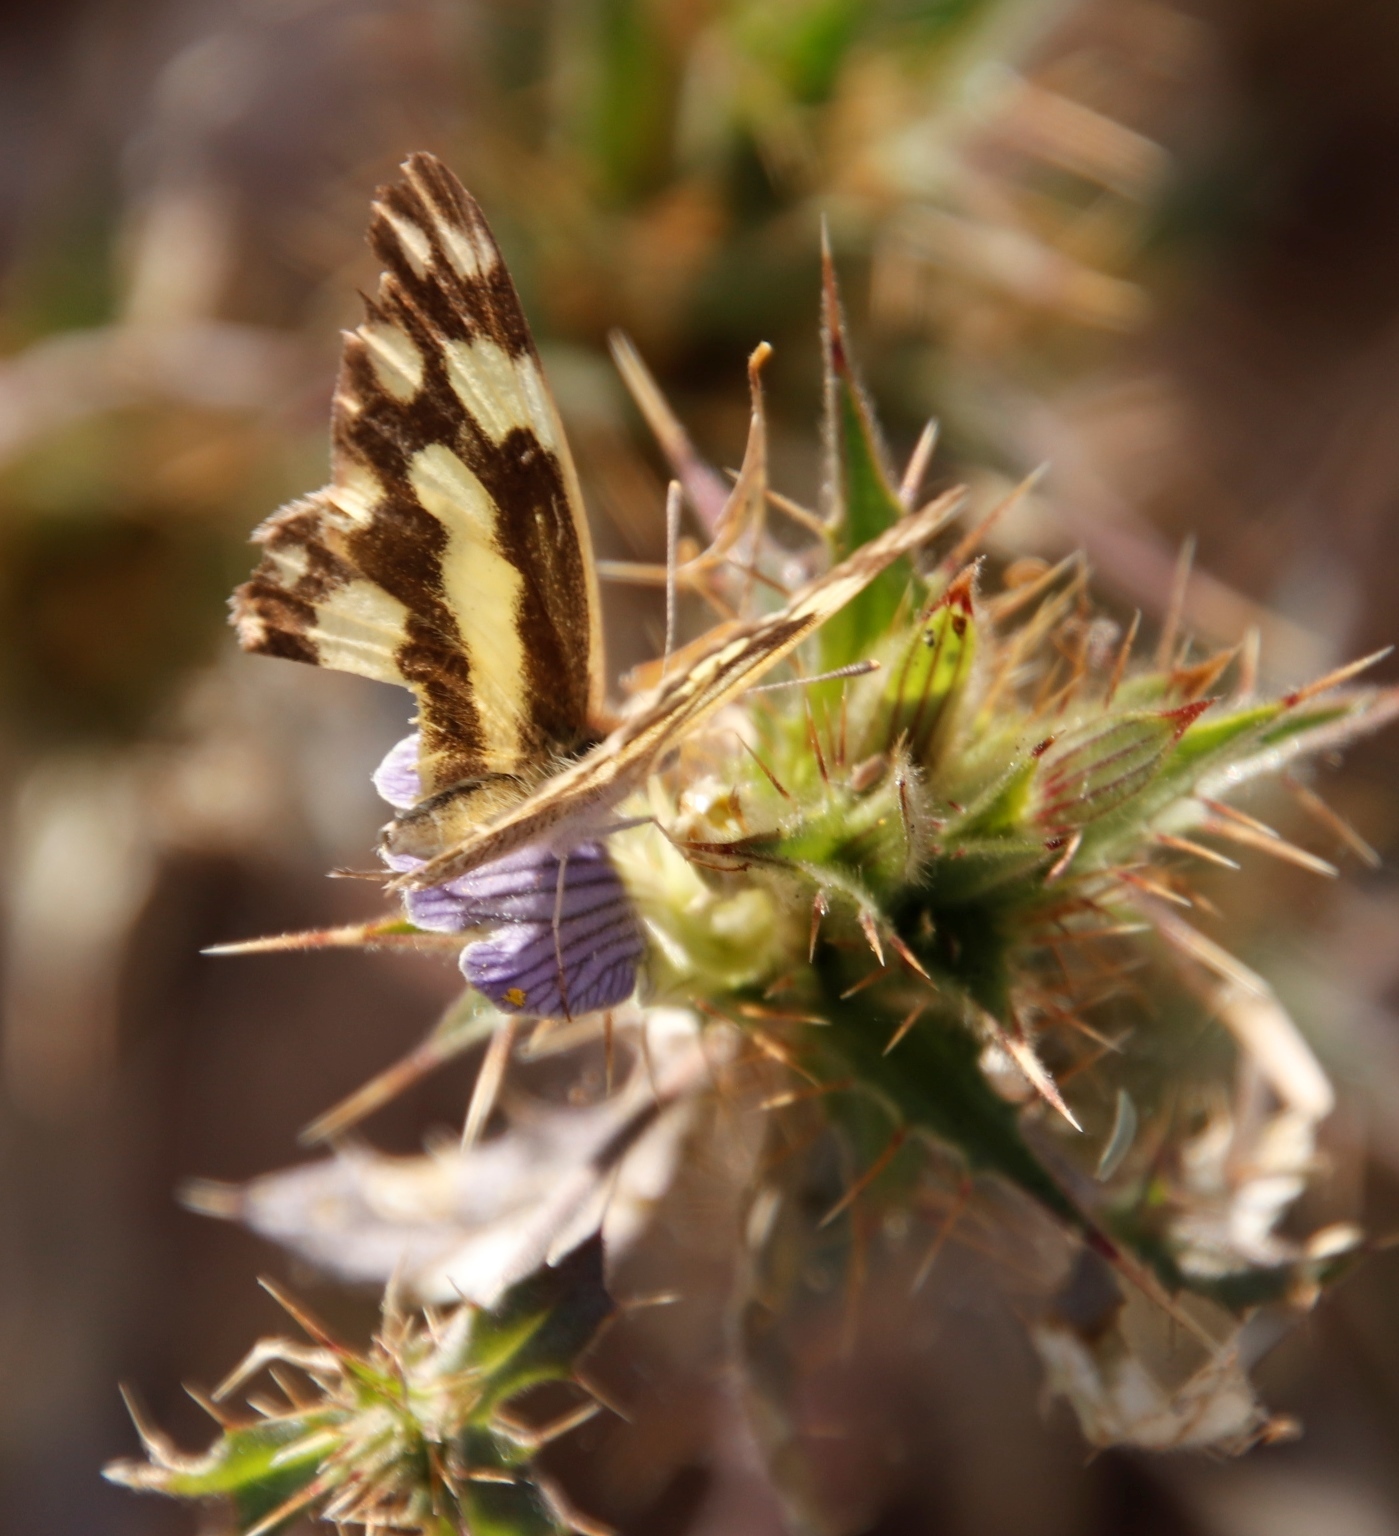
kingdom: Animalia
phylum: Arthropoda
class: Insecta
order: Lepidoptera
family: Pieridae
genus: Pinacopteryx
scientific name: Pinacopteryx eriphia
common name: Zebra white
